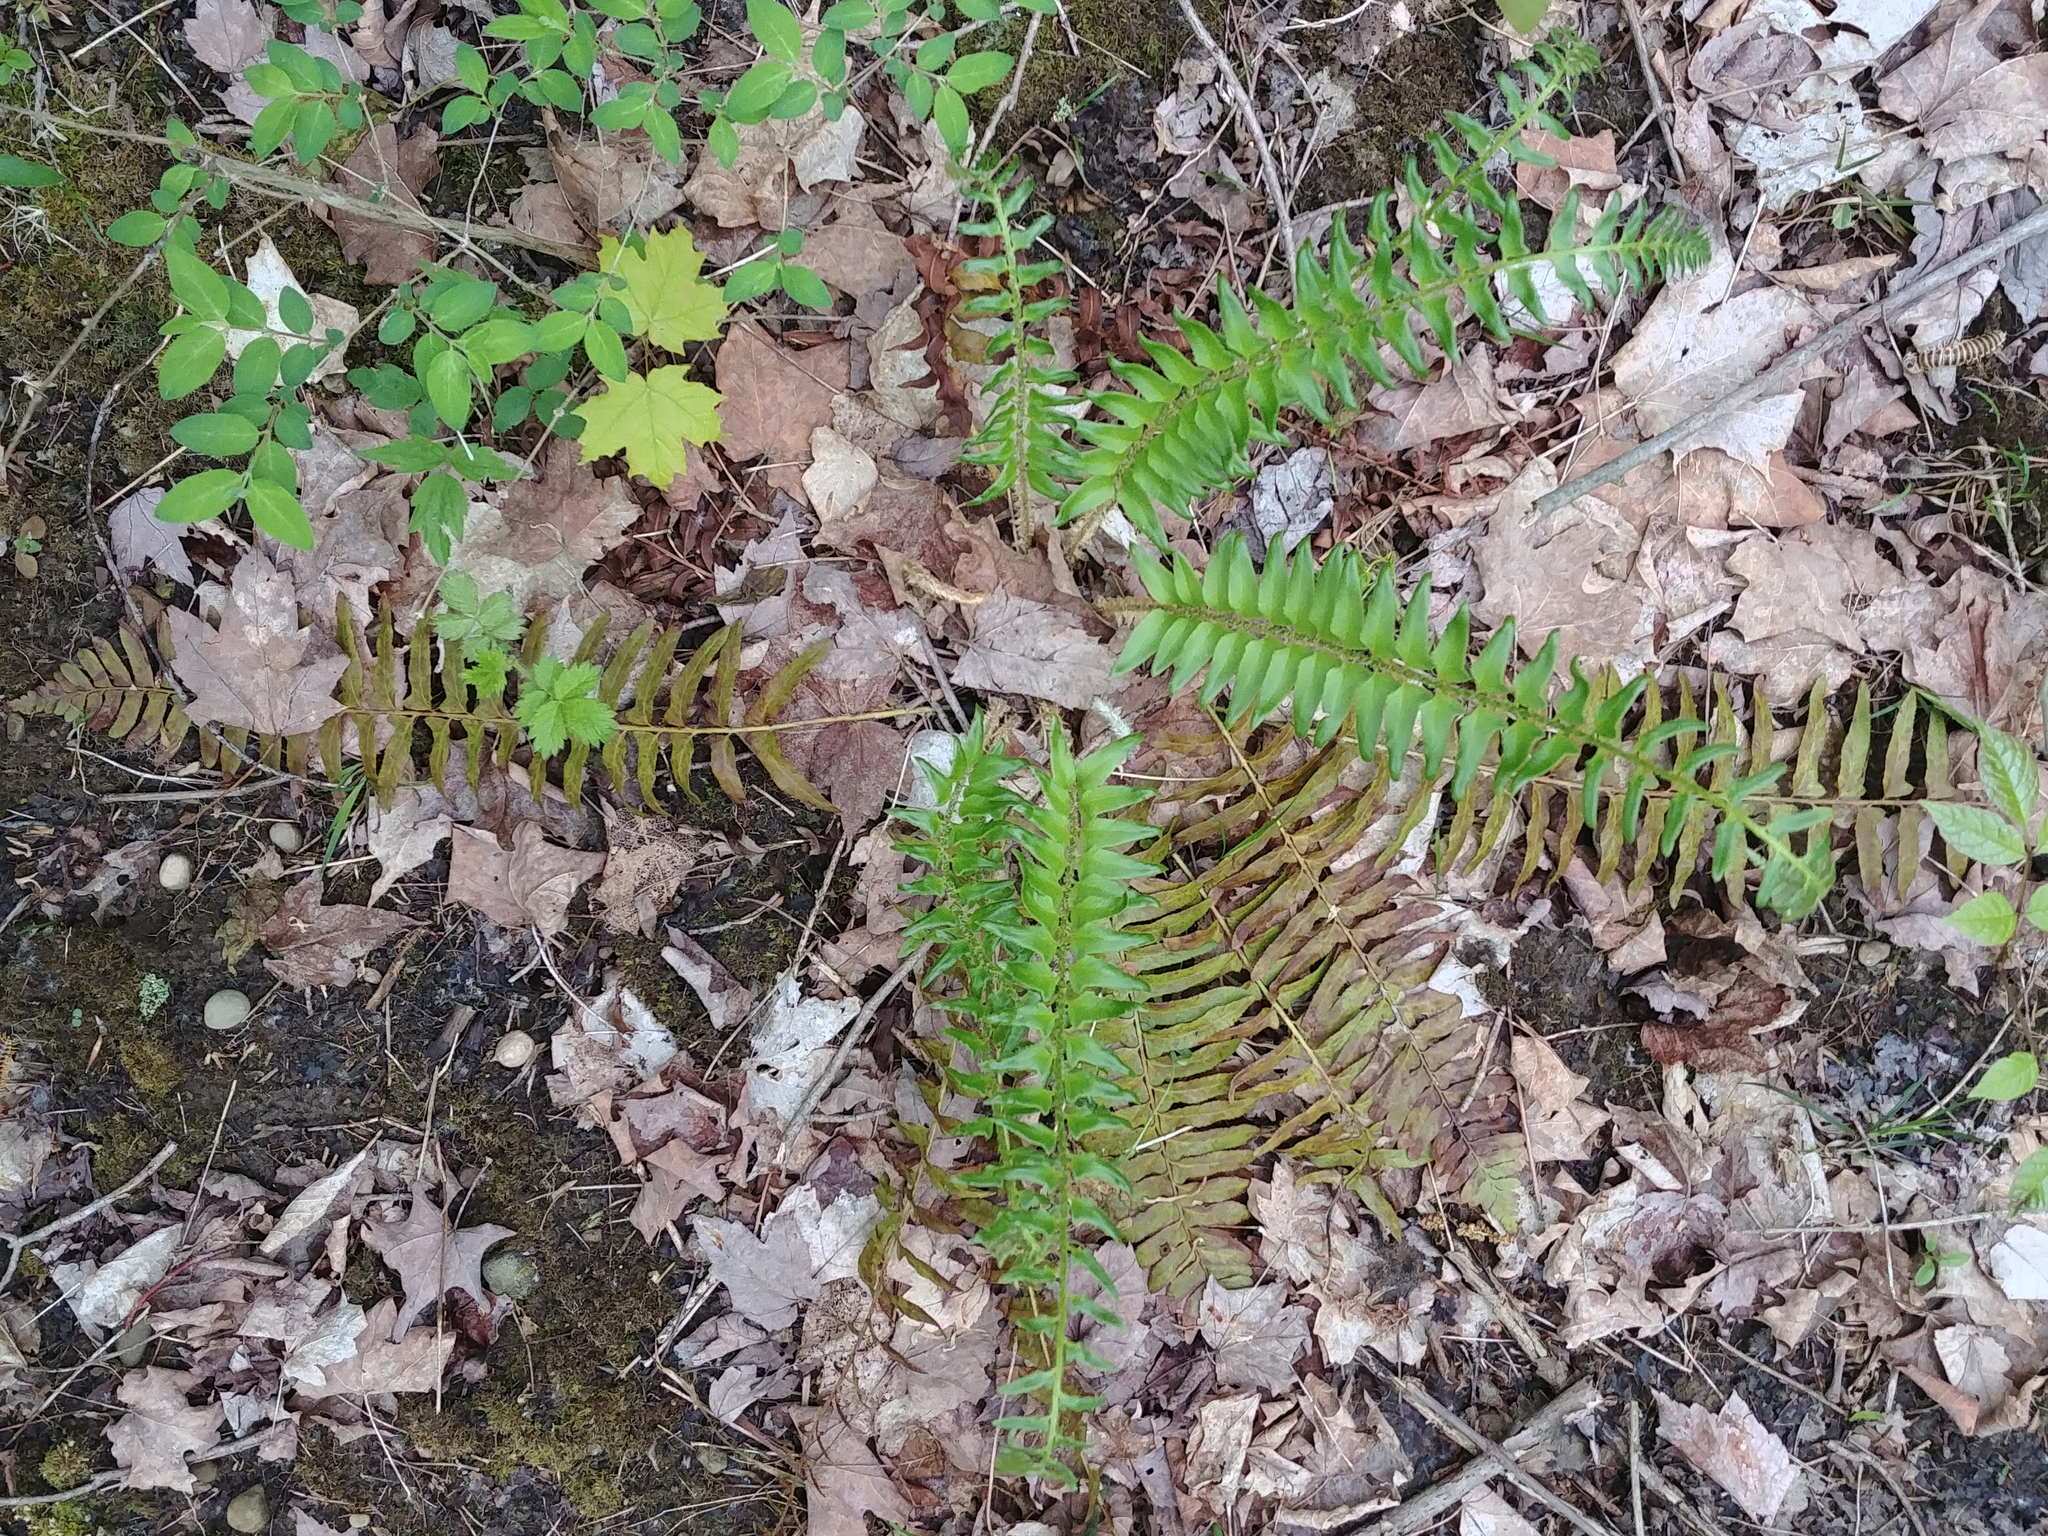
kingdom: Plantae
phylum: Tracheophyta
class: Polypodiopsida
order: Polypodiales
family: Dryopteridaceae
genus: Polystichum
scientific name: Polystichum acrostichoides
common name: Christmas fern
